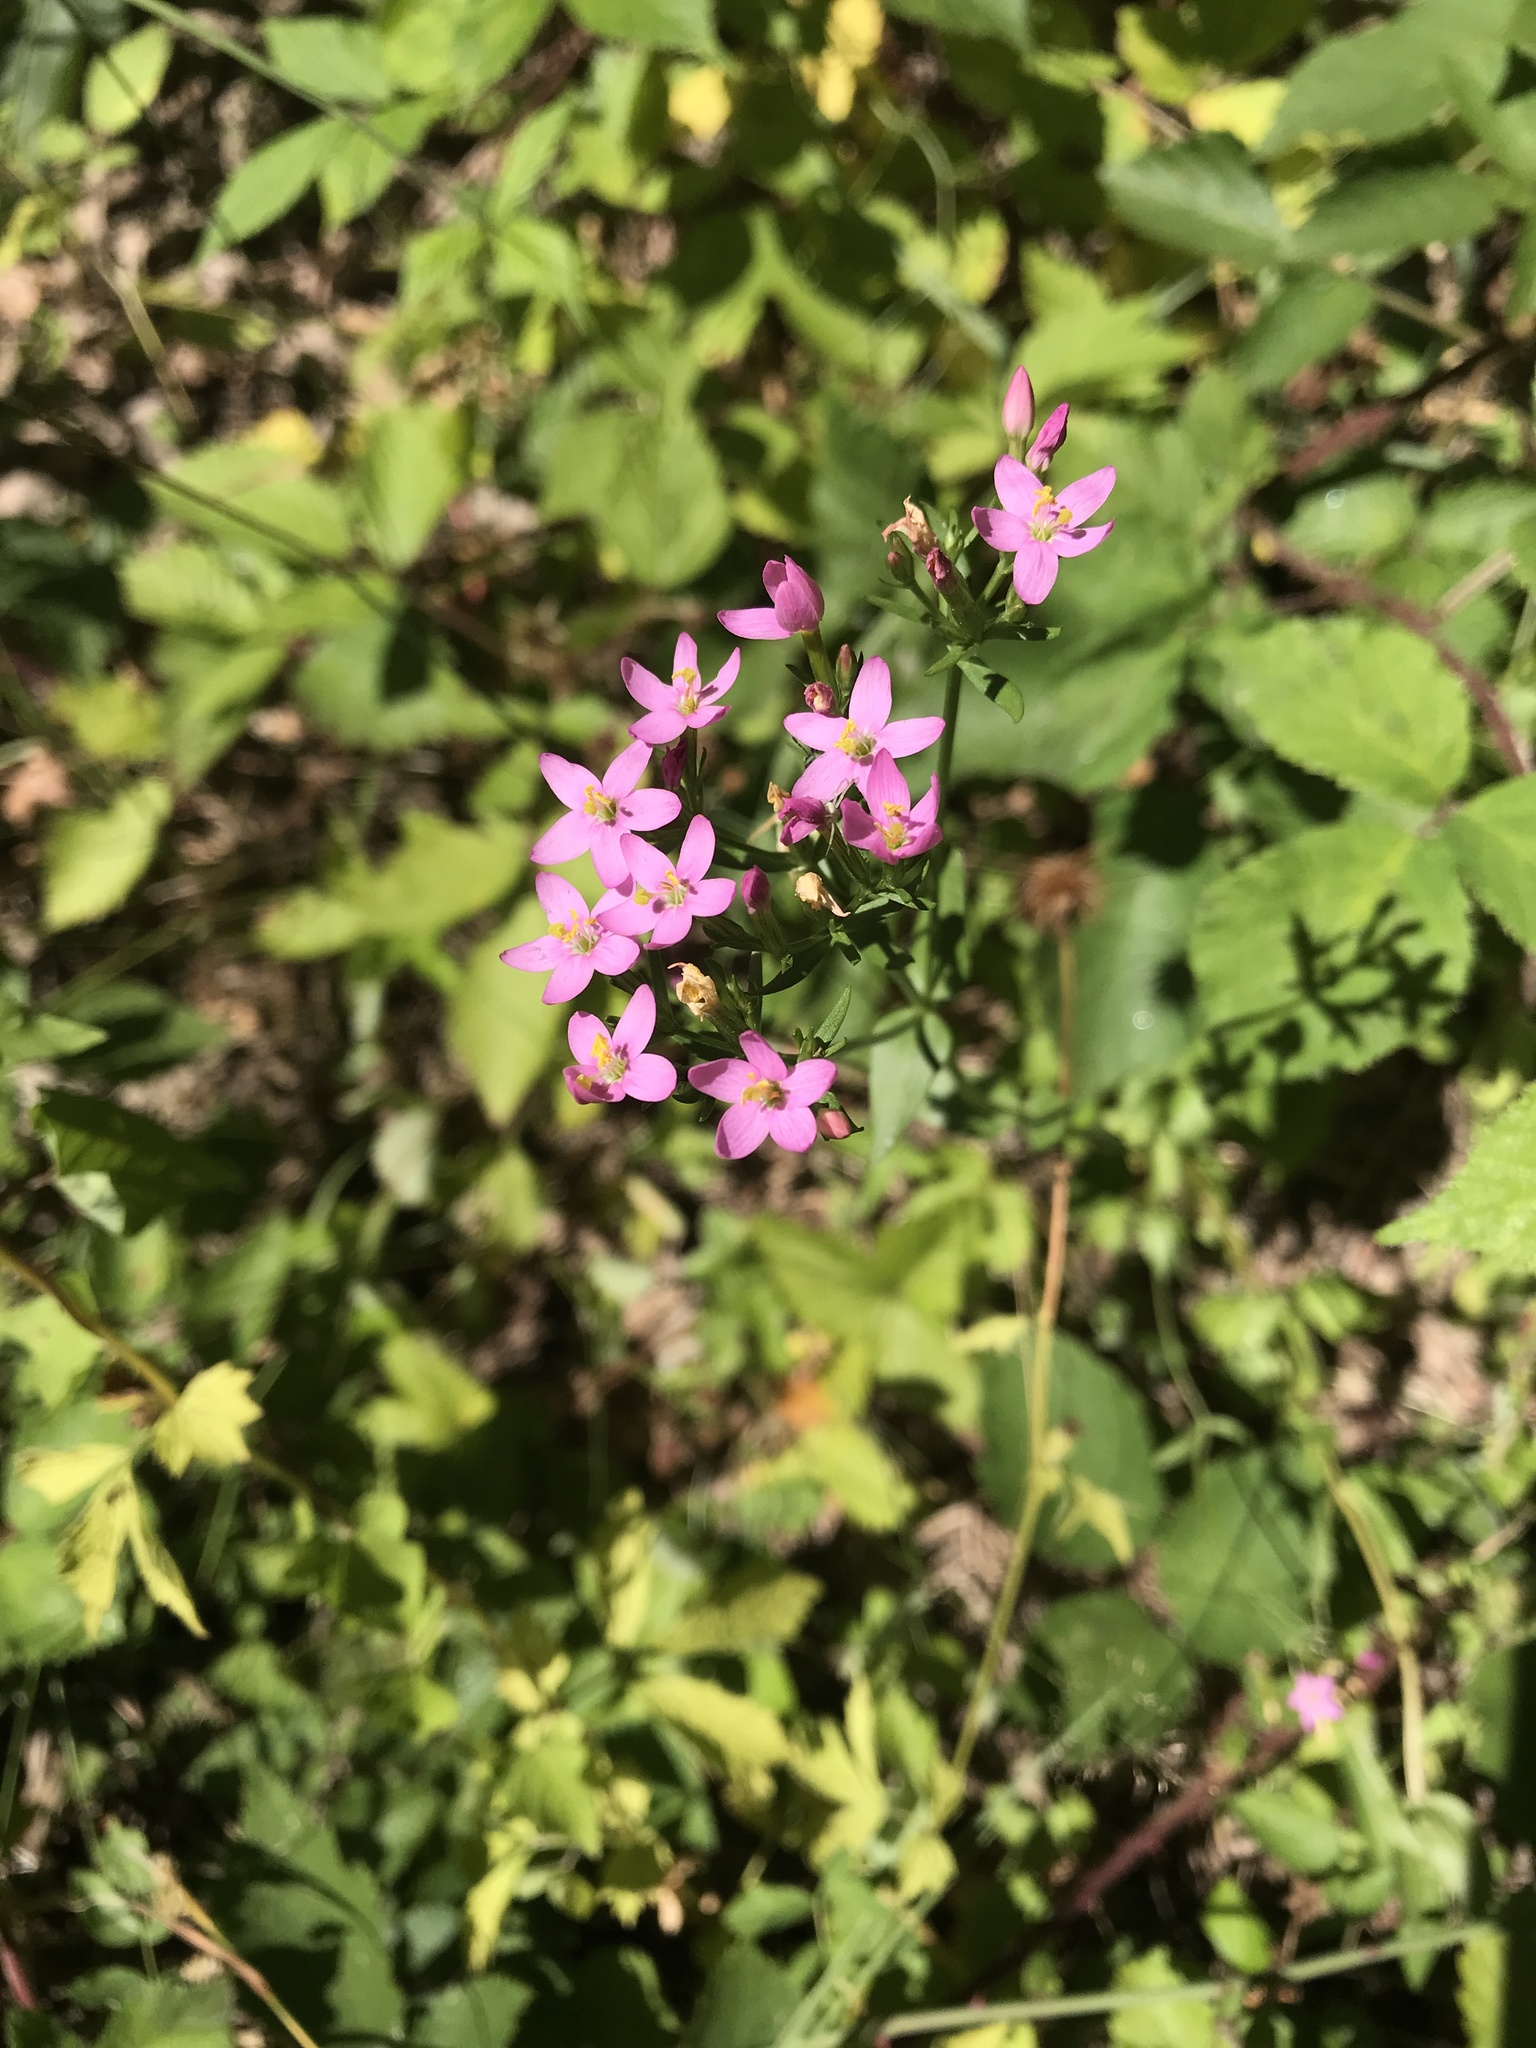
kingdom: Plantae
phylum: Tracheophyta
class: Magnoliopsida
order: Gentianales
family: Gentianaceae
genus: Centaurium
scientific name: Centaurium erythraea
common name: Common centaury
